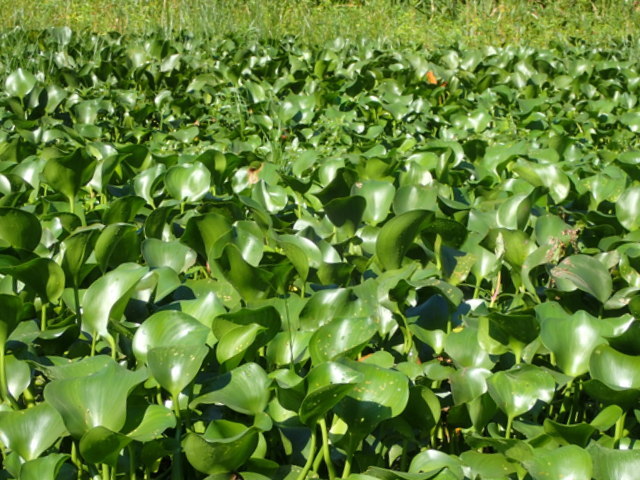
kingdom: Plantae
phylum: Tracheophyta
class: Liliopsida
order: Commelinales
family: Pontederiaceae
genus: Pontederia
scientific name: Pontederia crassipes
